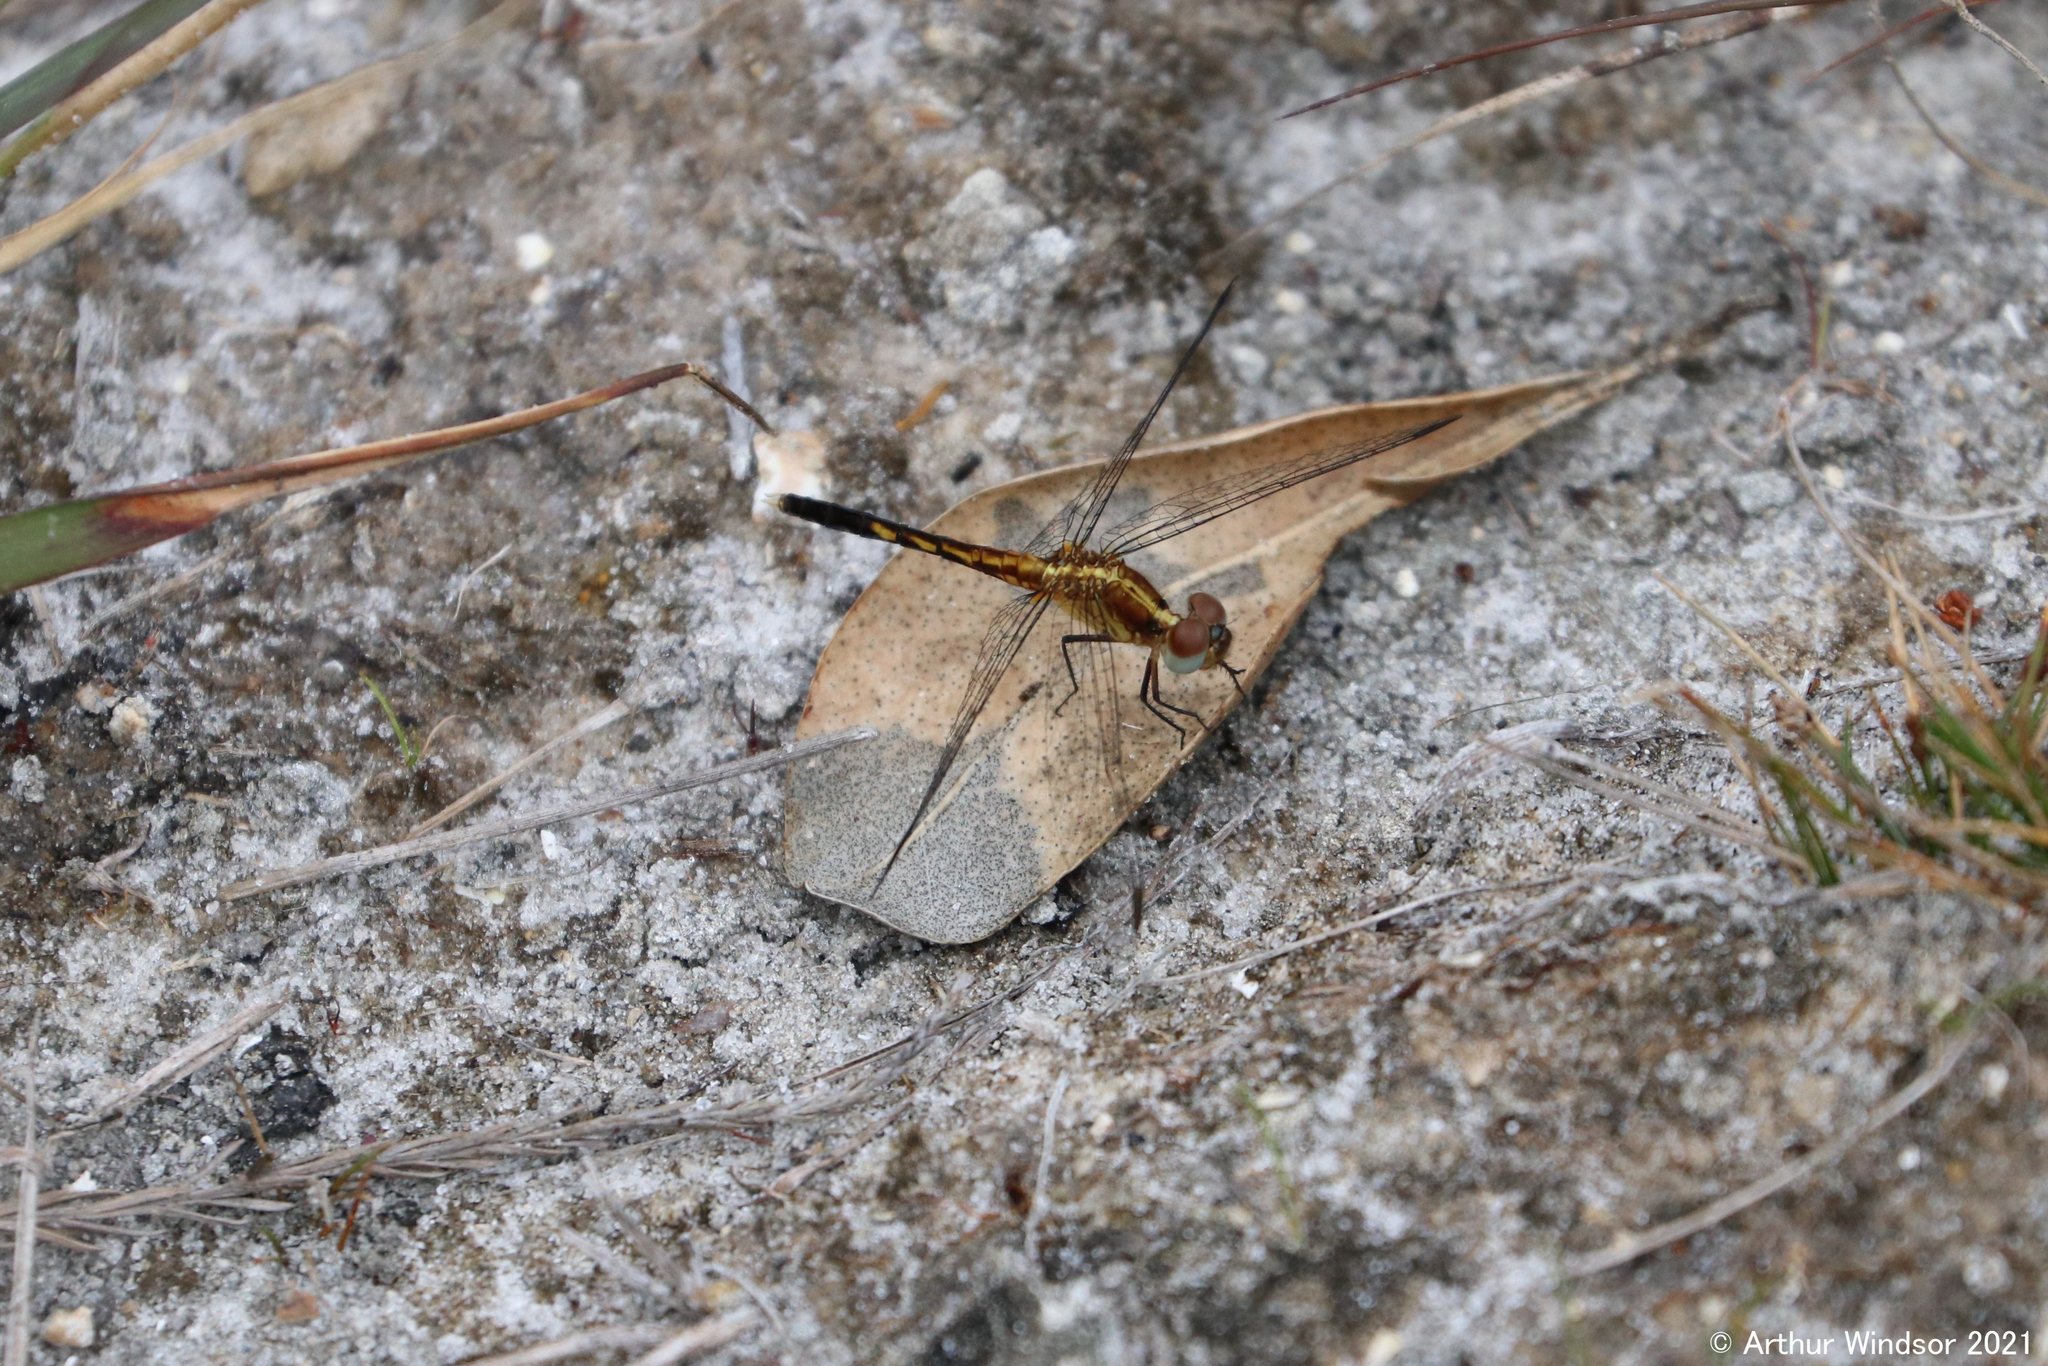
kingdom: Animalia
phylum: Arthropoda
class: Insecta
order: Odonata
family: Libellulidae
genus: Erythrodiplax
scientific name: Erythrodiplax minuscula
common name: Little blue dragonlet
